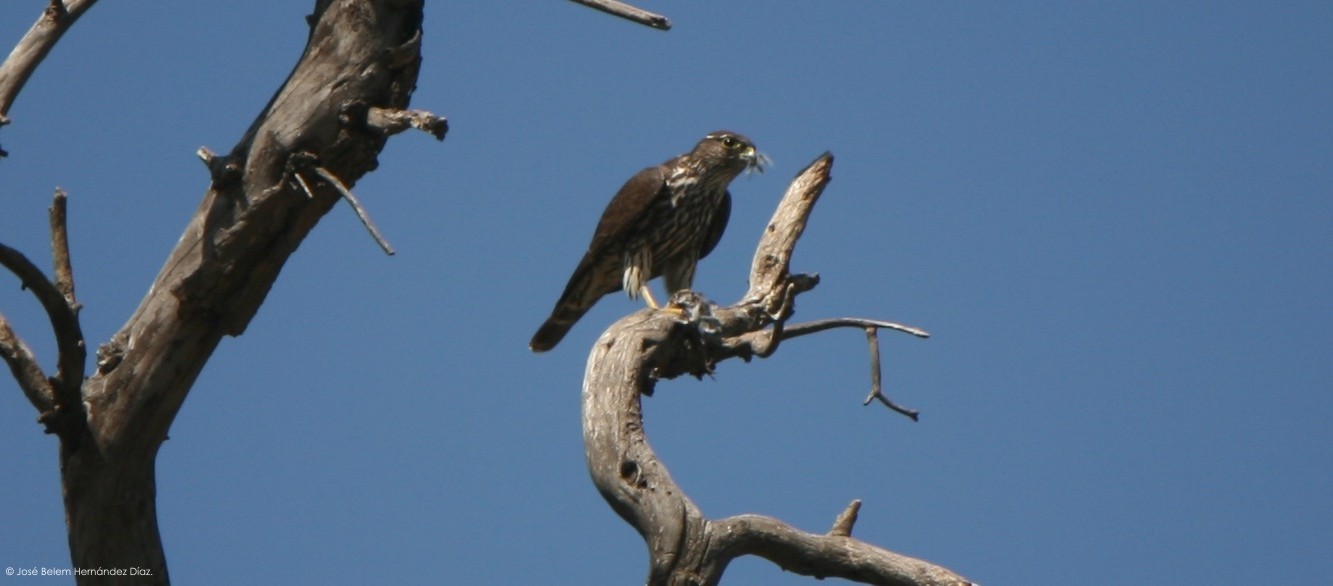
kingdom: Animalia
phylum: Chordata
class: Aves
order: Falconiformes
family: Falconidae
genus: Falco
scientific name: Falco columbarius
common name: Merlin
